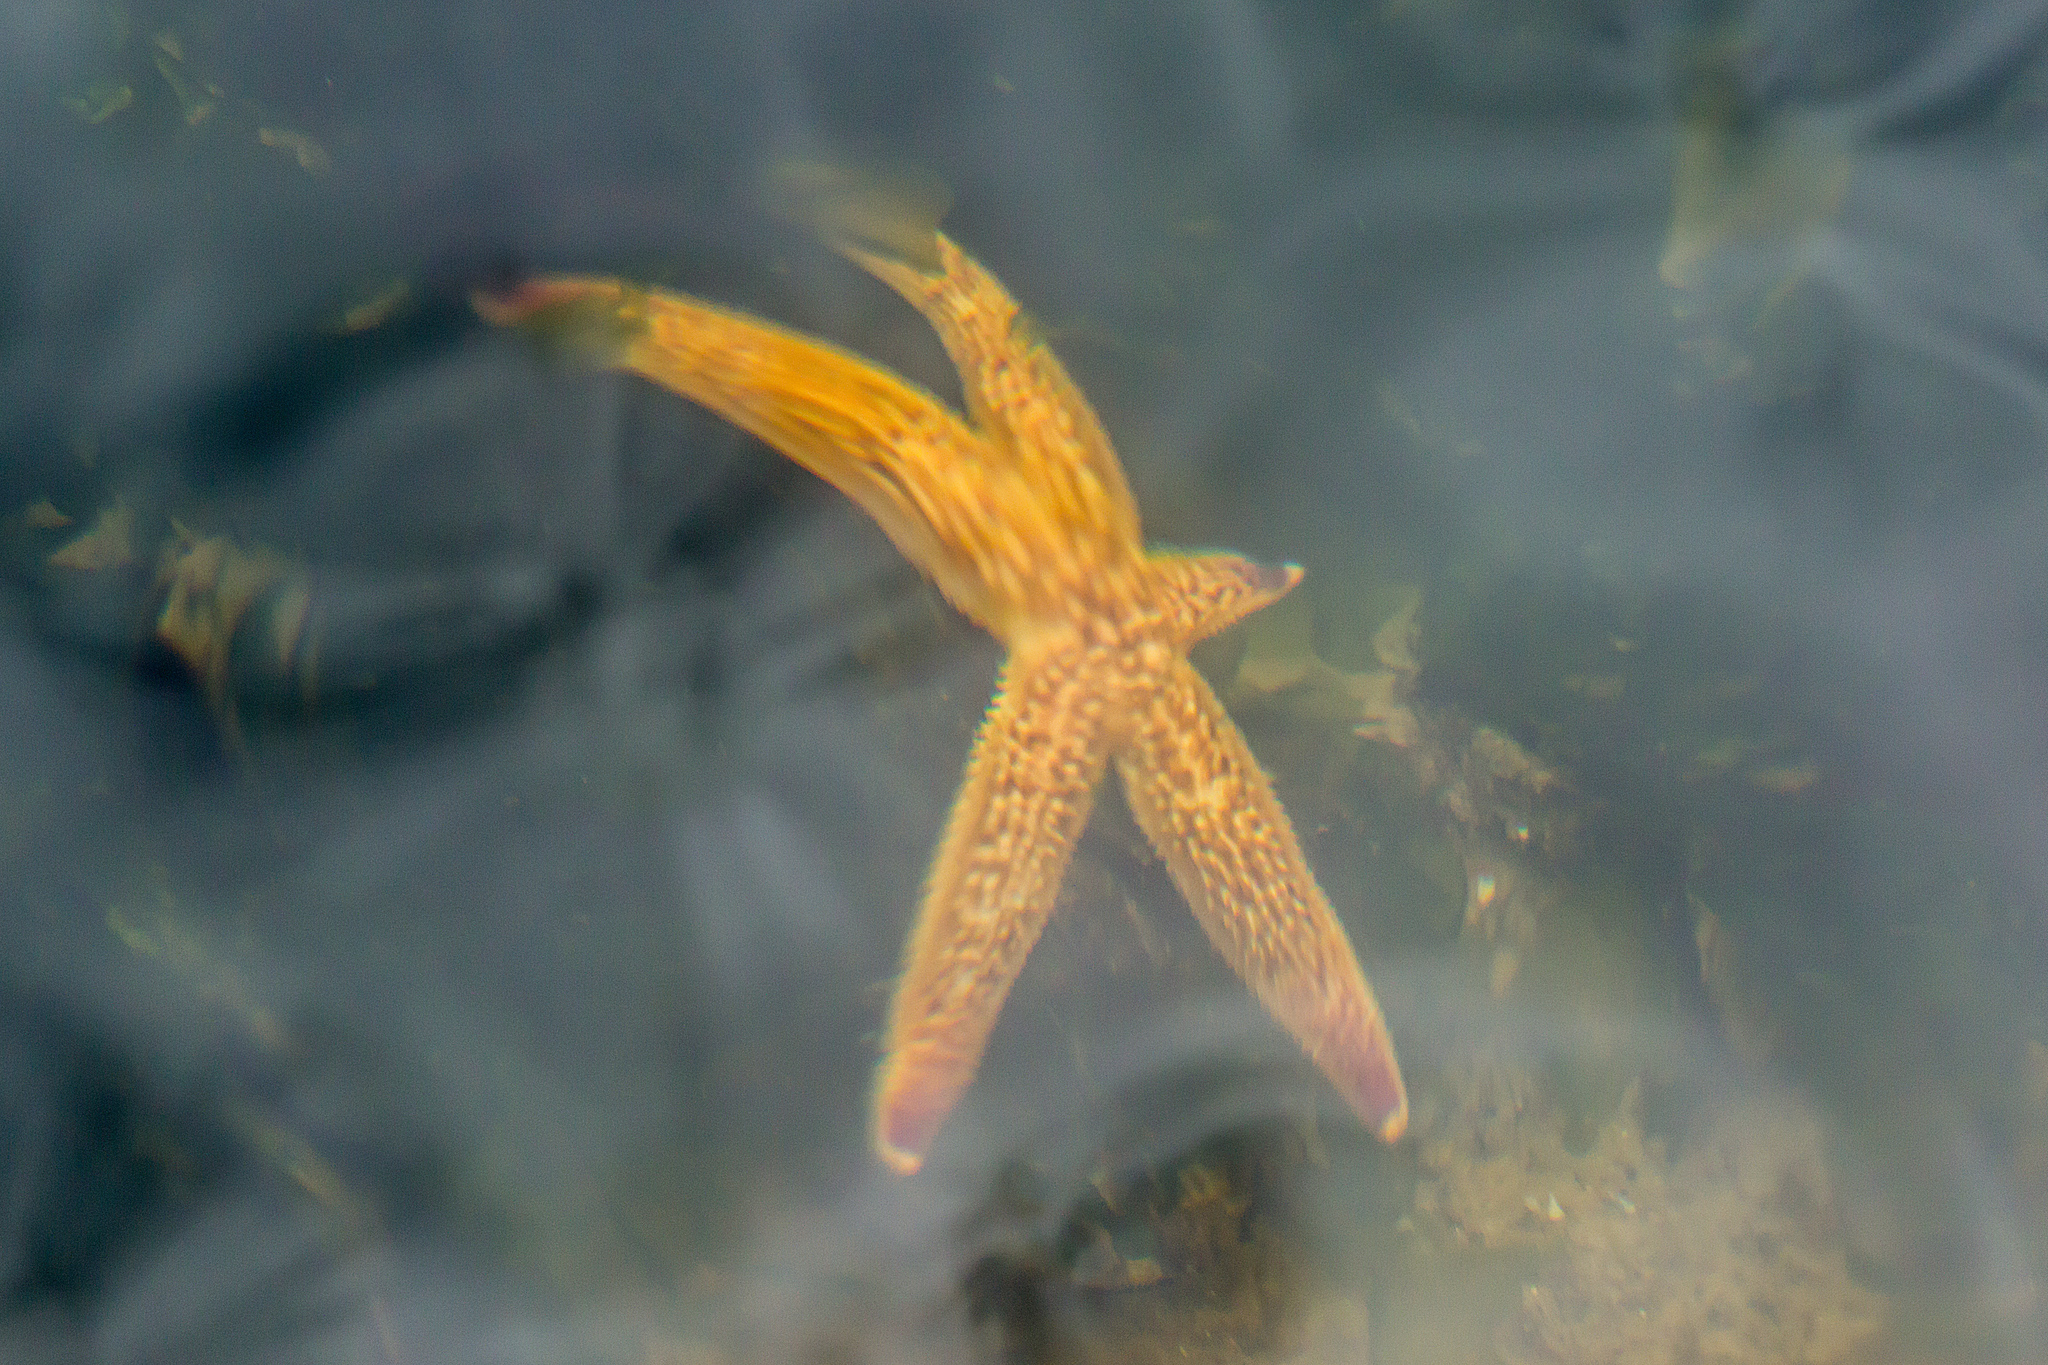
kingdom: Animalia
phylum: Echinodermata
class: Asteroidea
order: Forcipulatida
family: Asteriidae
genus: Asterias
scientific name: Asterias amurensis
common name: Flat-bottomed star
